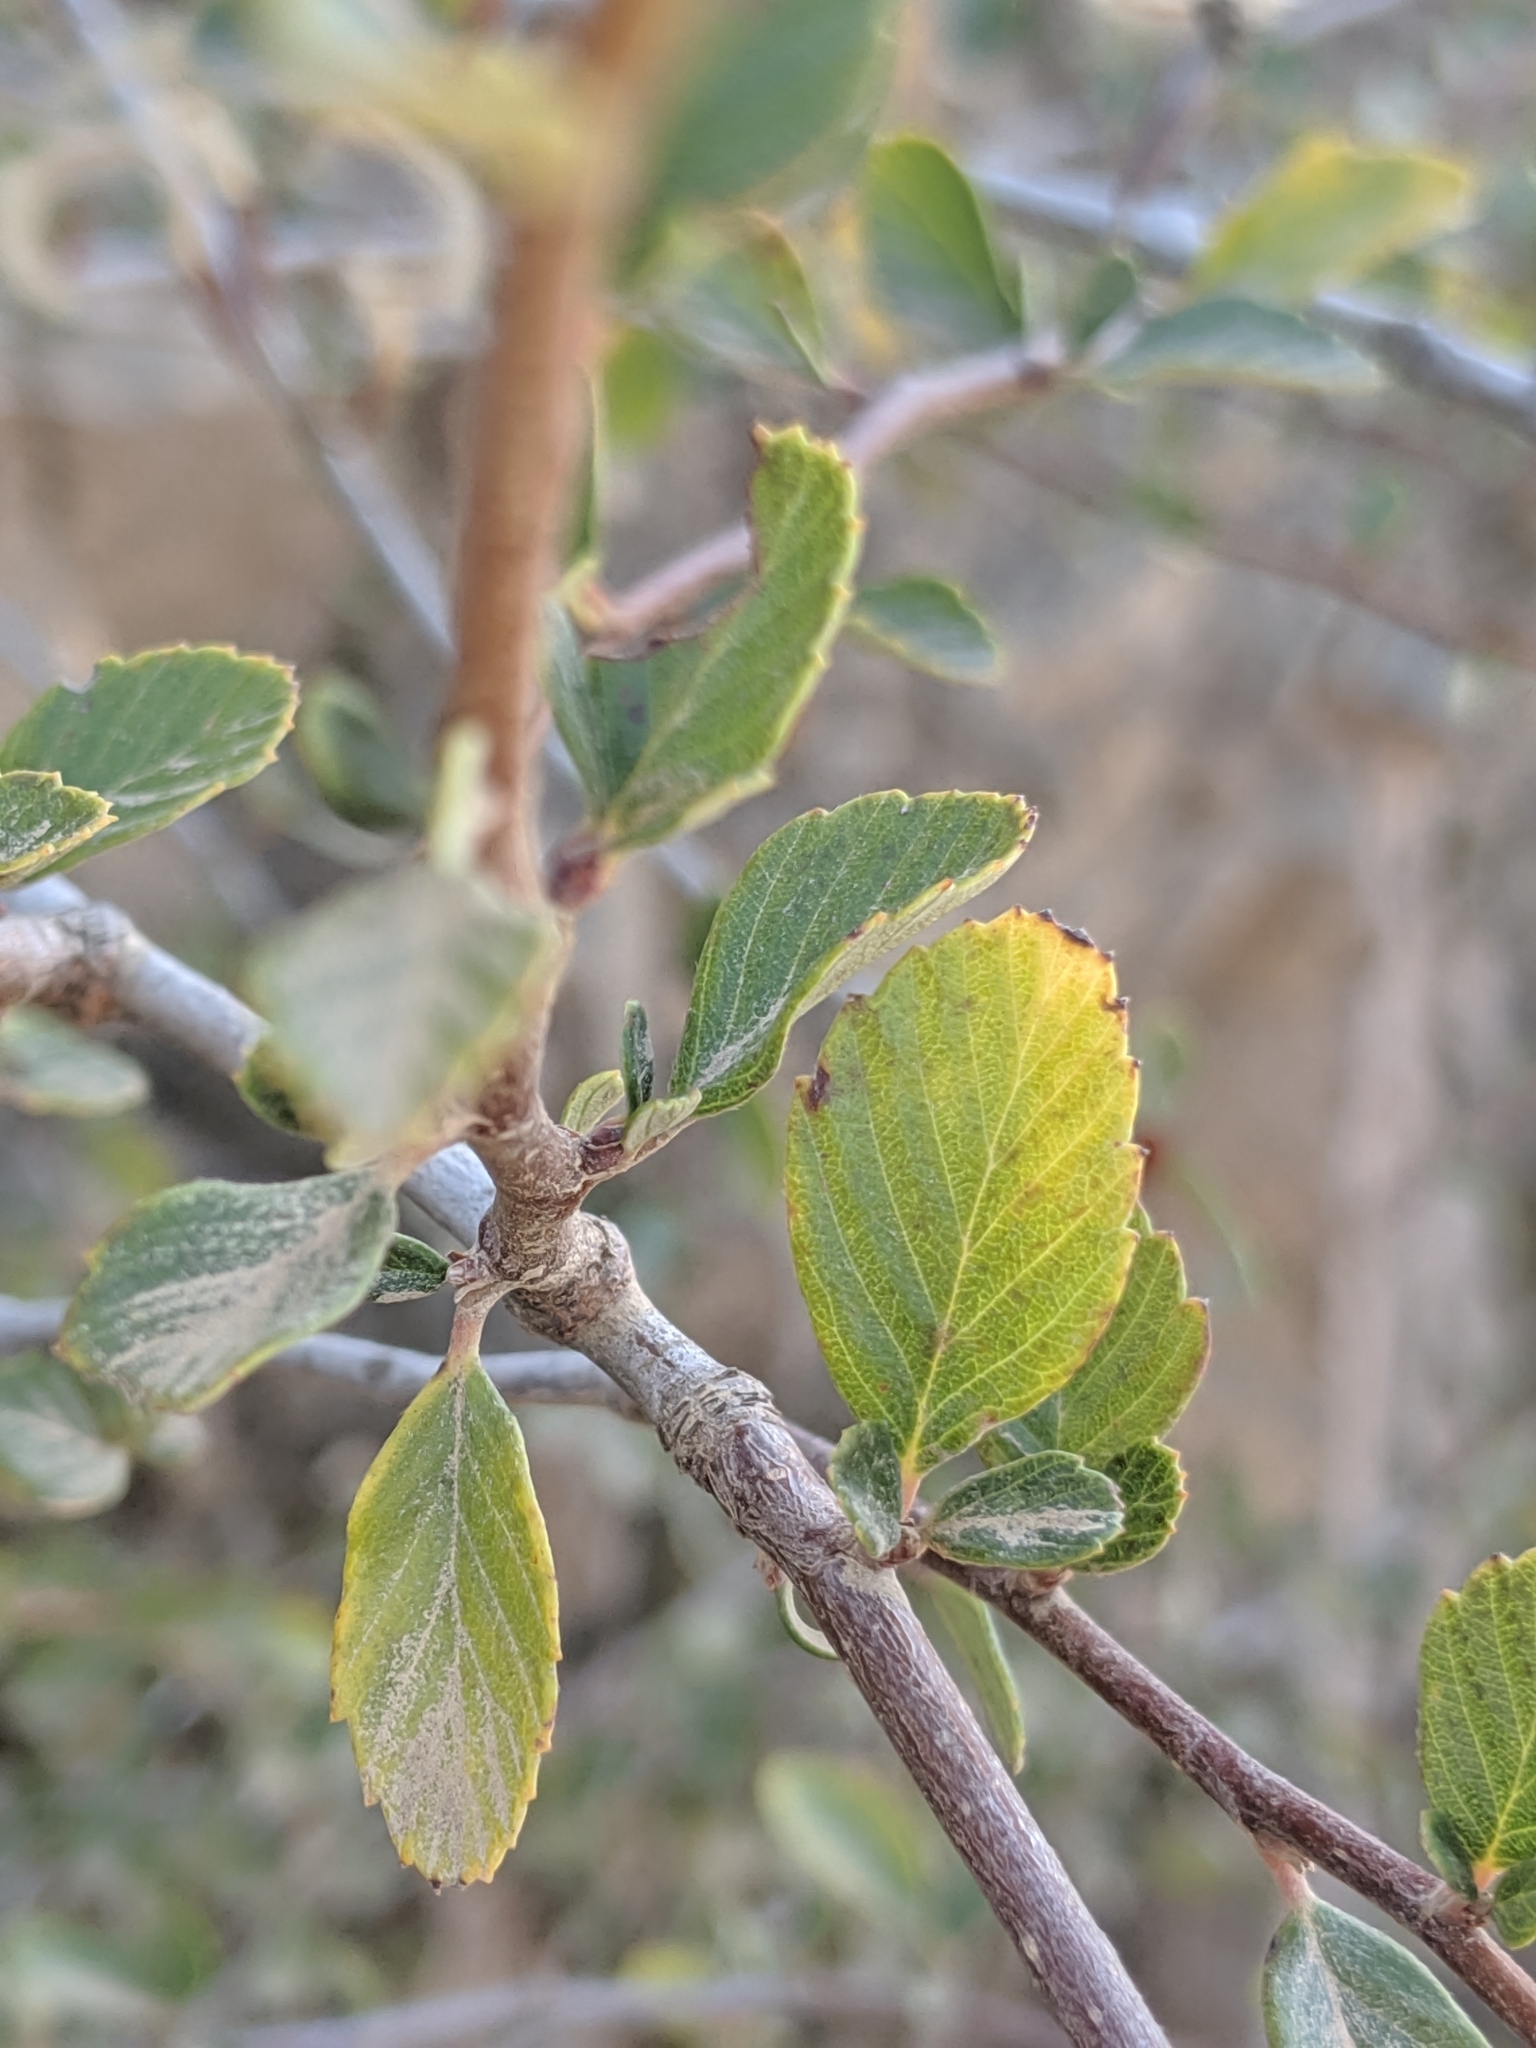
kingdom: Plantae
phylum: Tracheophyta
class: Magnoliopsida
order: Rosales
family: Rosaceae
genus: Cercocarpus
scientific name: Cercocarpus betuloides
